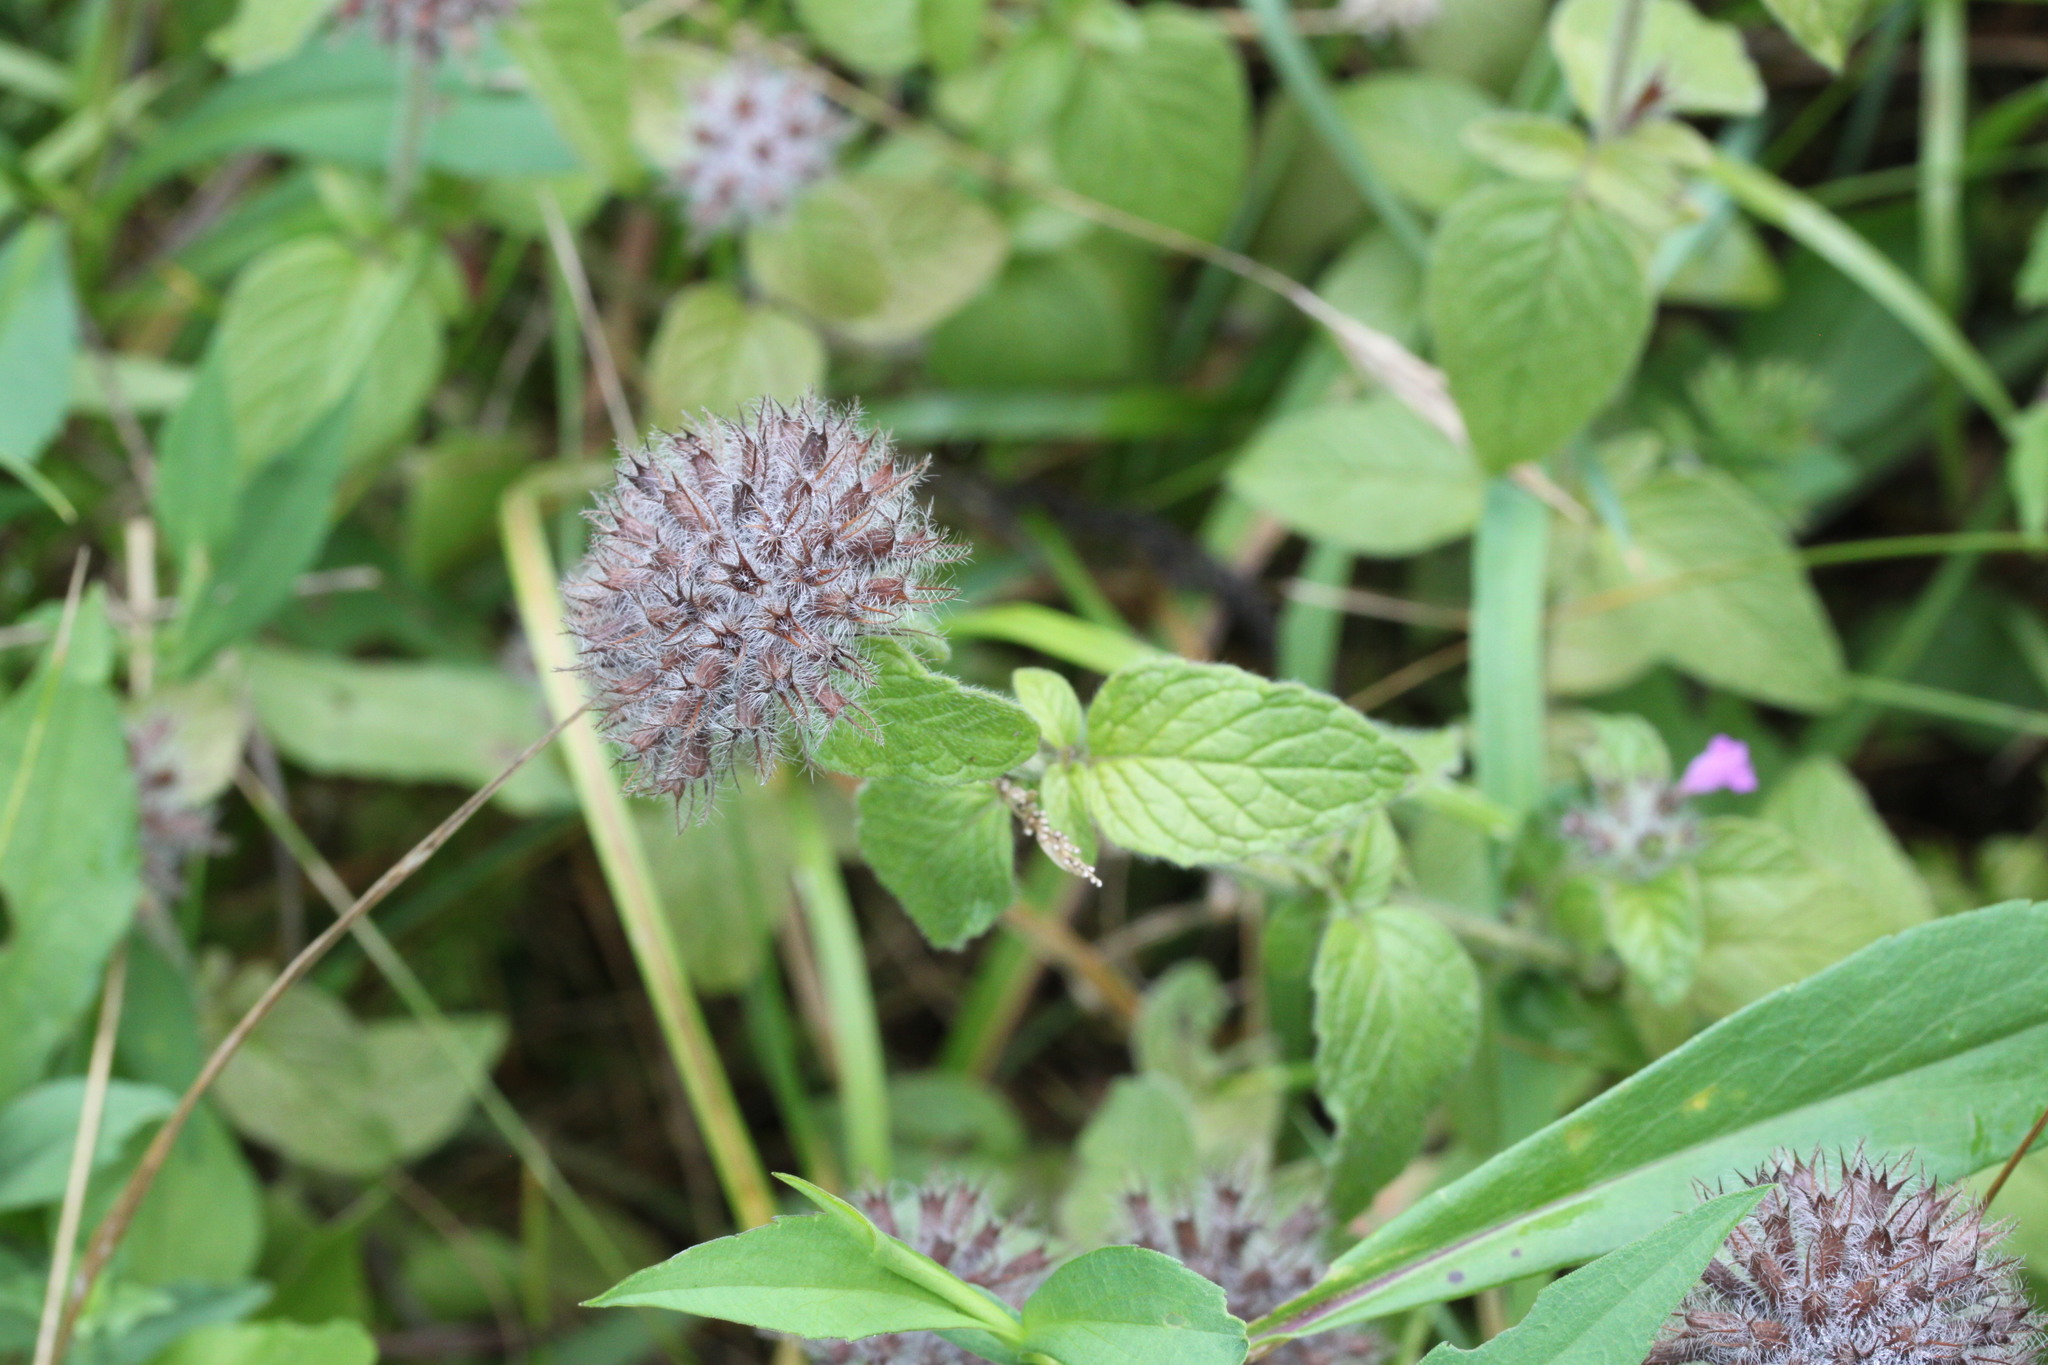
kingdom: Plantae
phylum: Tracheophyta
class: Magnoliopsida
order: Lamiales
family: Lamiaceae
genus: Clinopodium
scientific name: Clinopodium vulgare
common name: Wild basil
